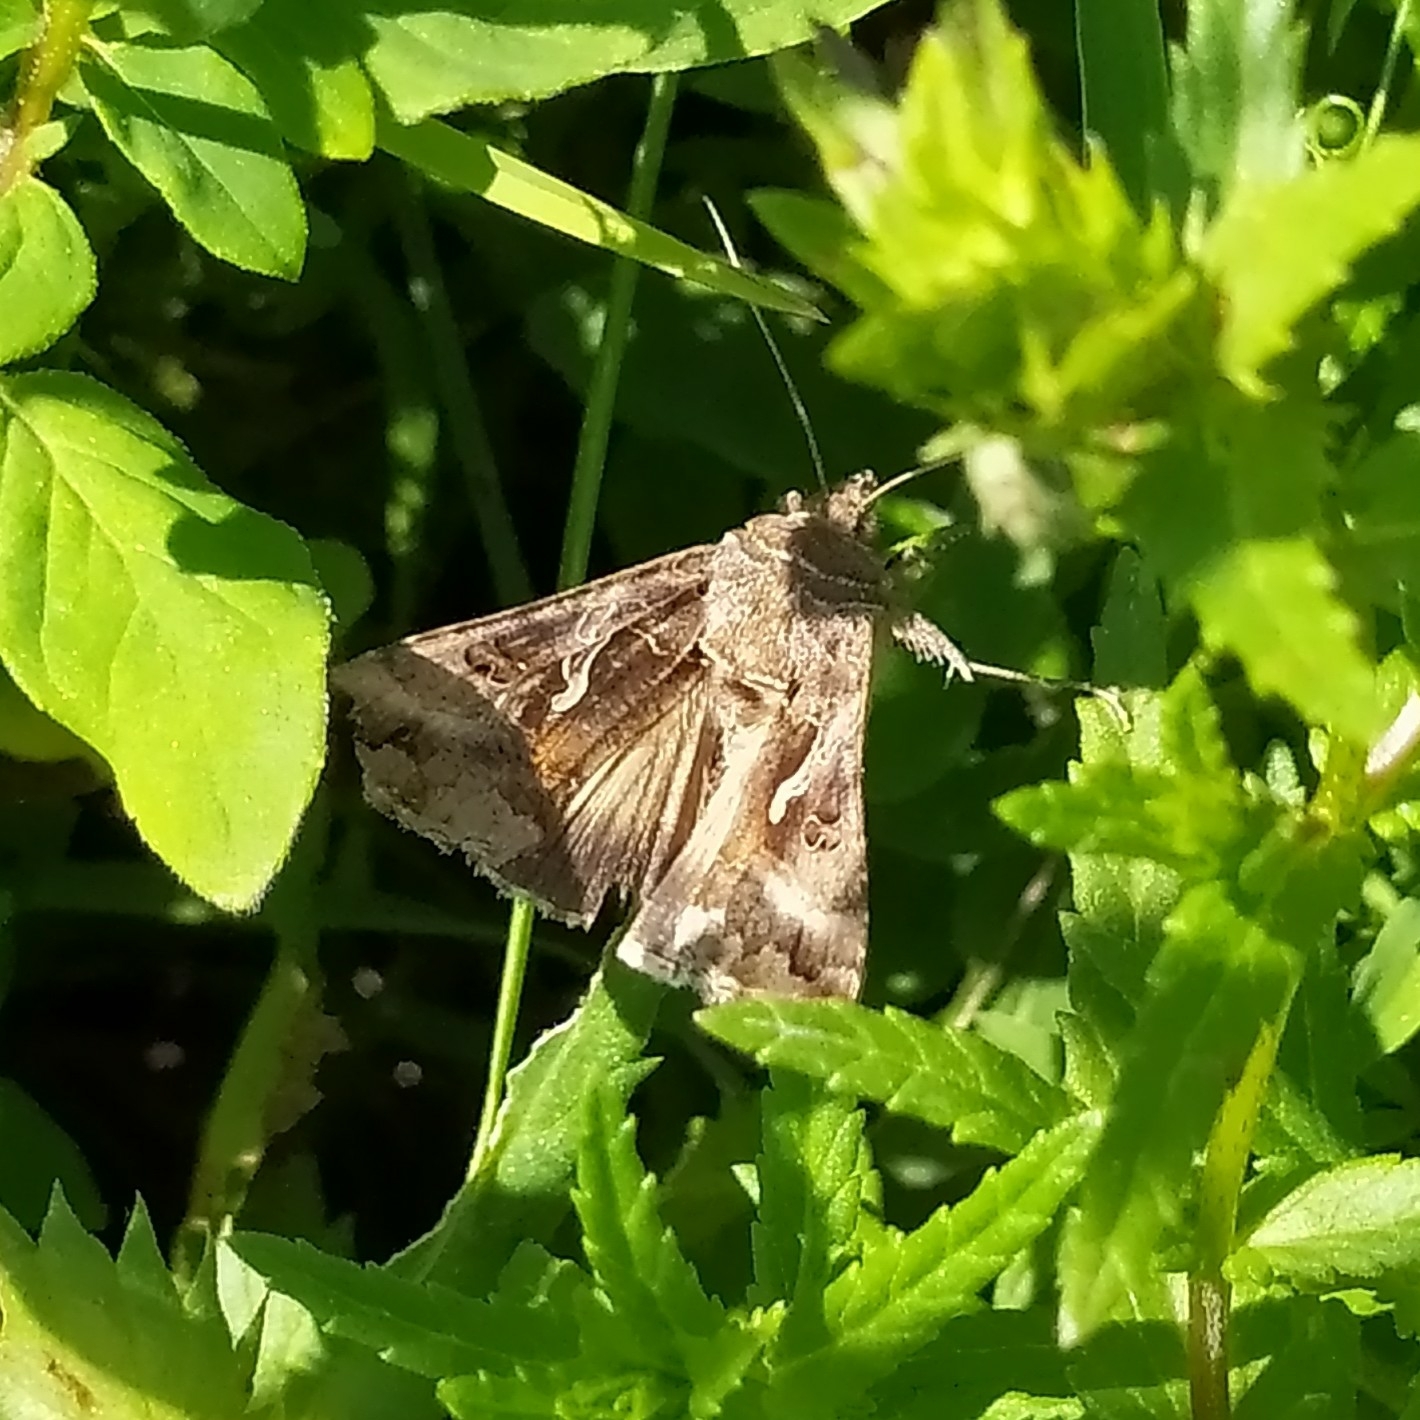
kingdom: Animalia
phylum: Arthropoda
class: Insecta
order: Lepidoptera
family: Noctuidae
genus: Autographa
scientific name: Autographa gamma
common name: Silver y
